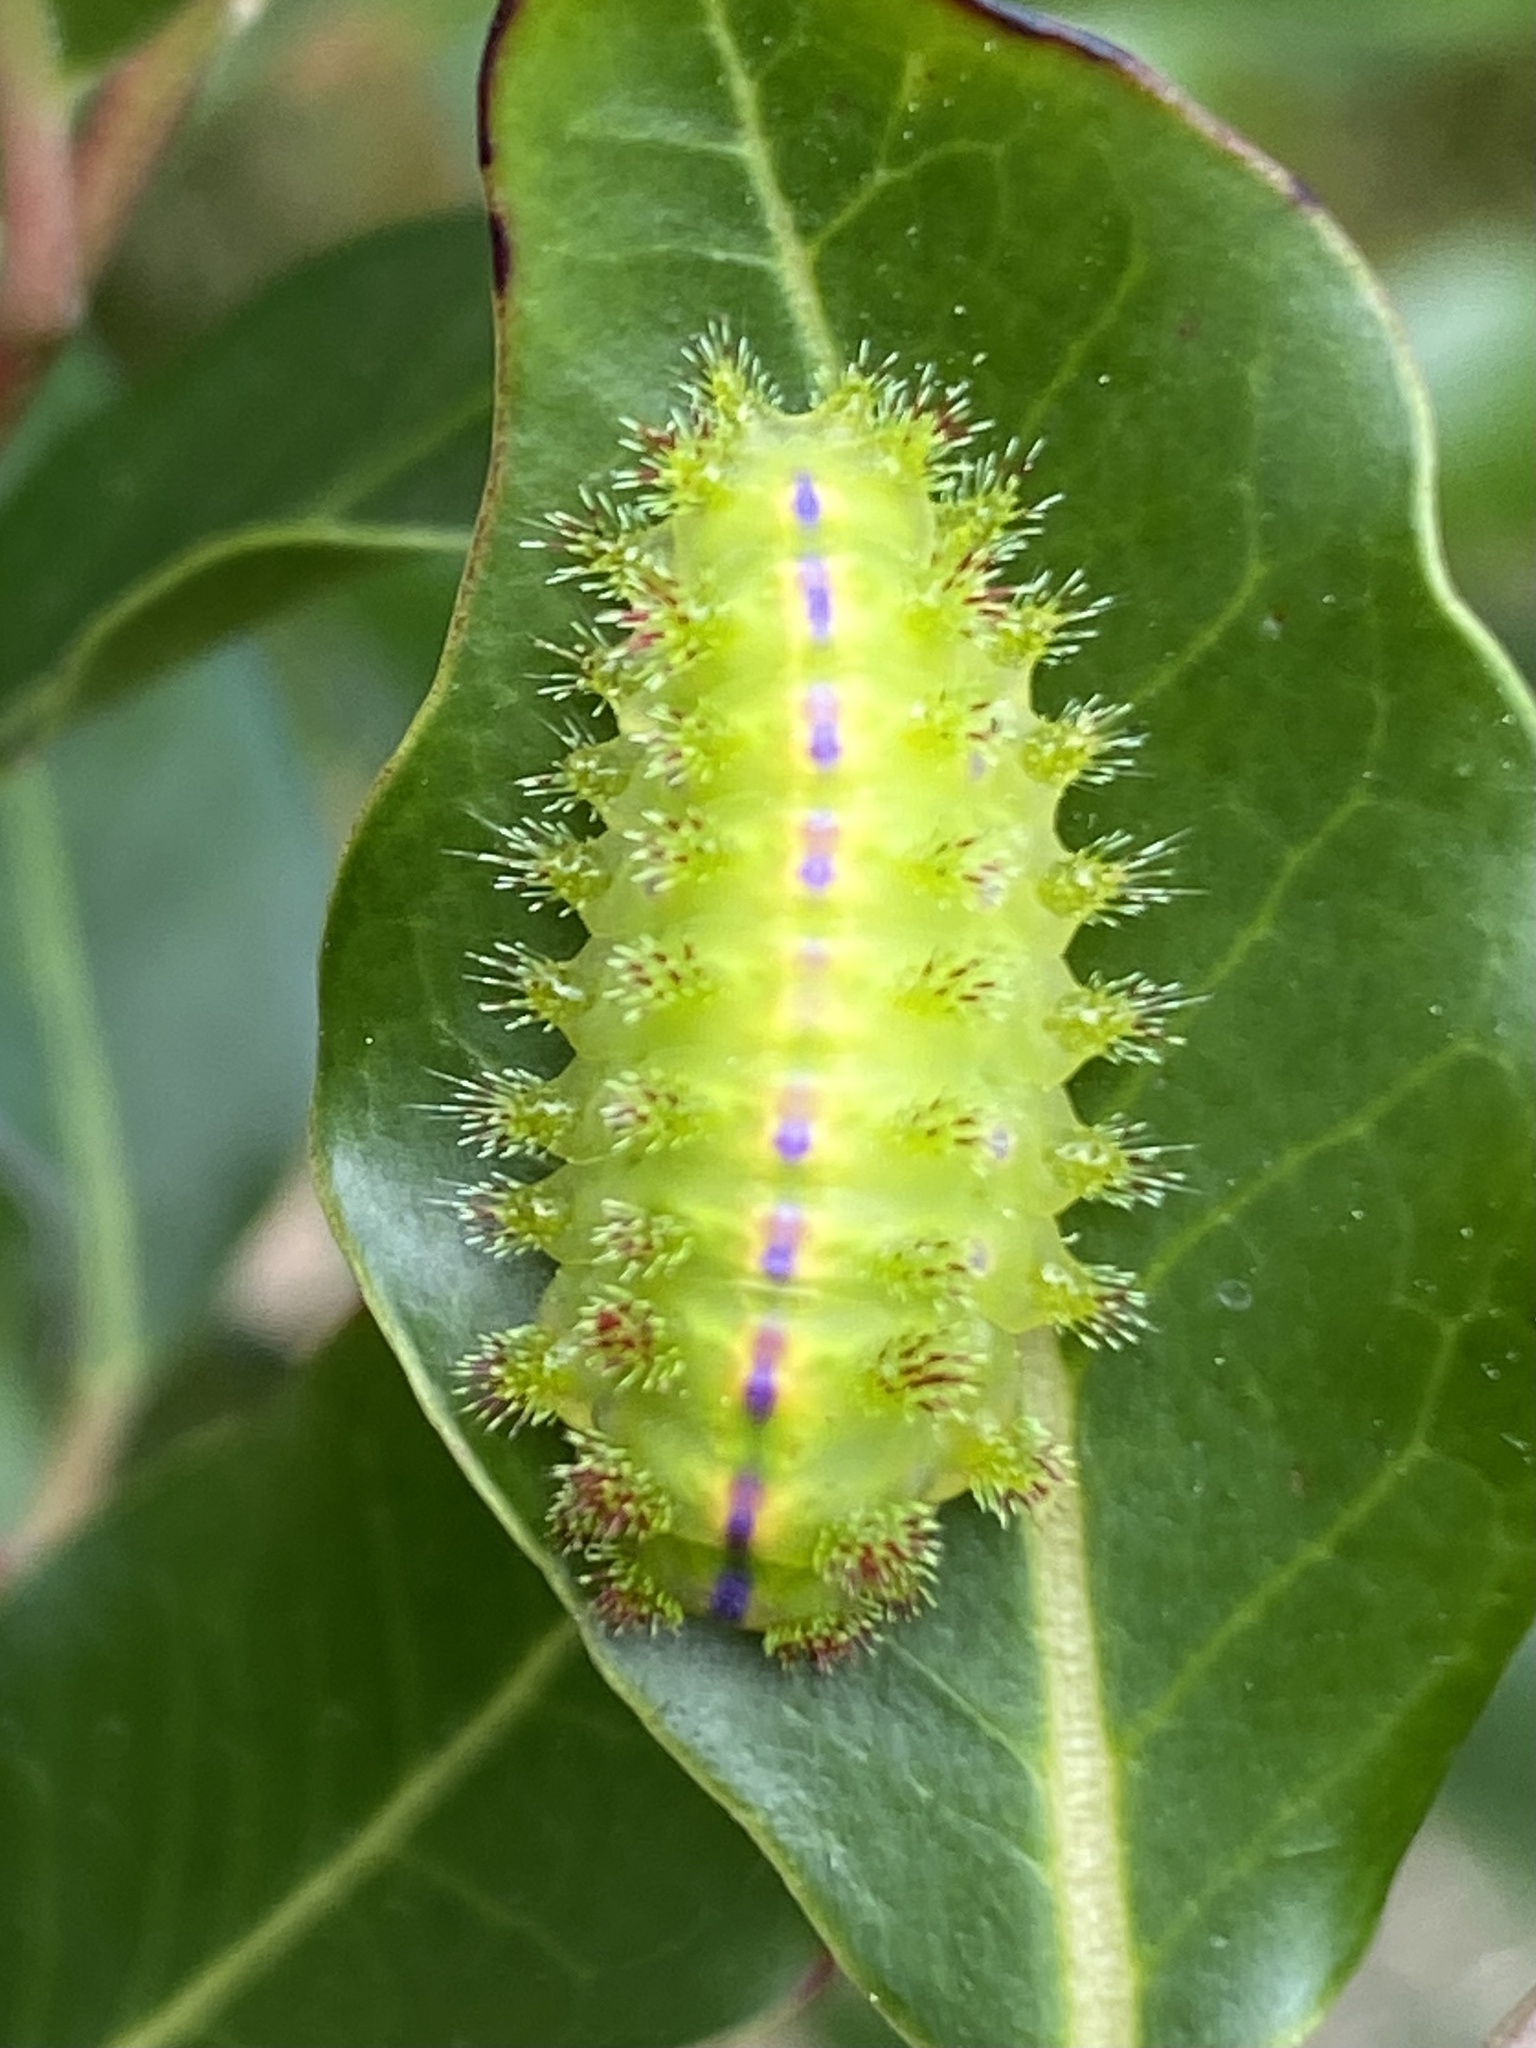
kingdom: Animalia
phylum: Arthropoda
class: Insecta
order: Lepidoptera
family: Limacodidae
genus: Parasa
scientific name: Parasa latistriga
